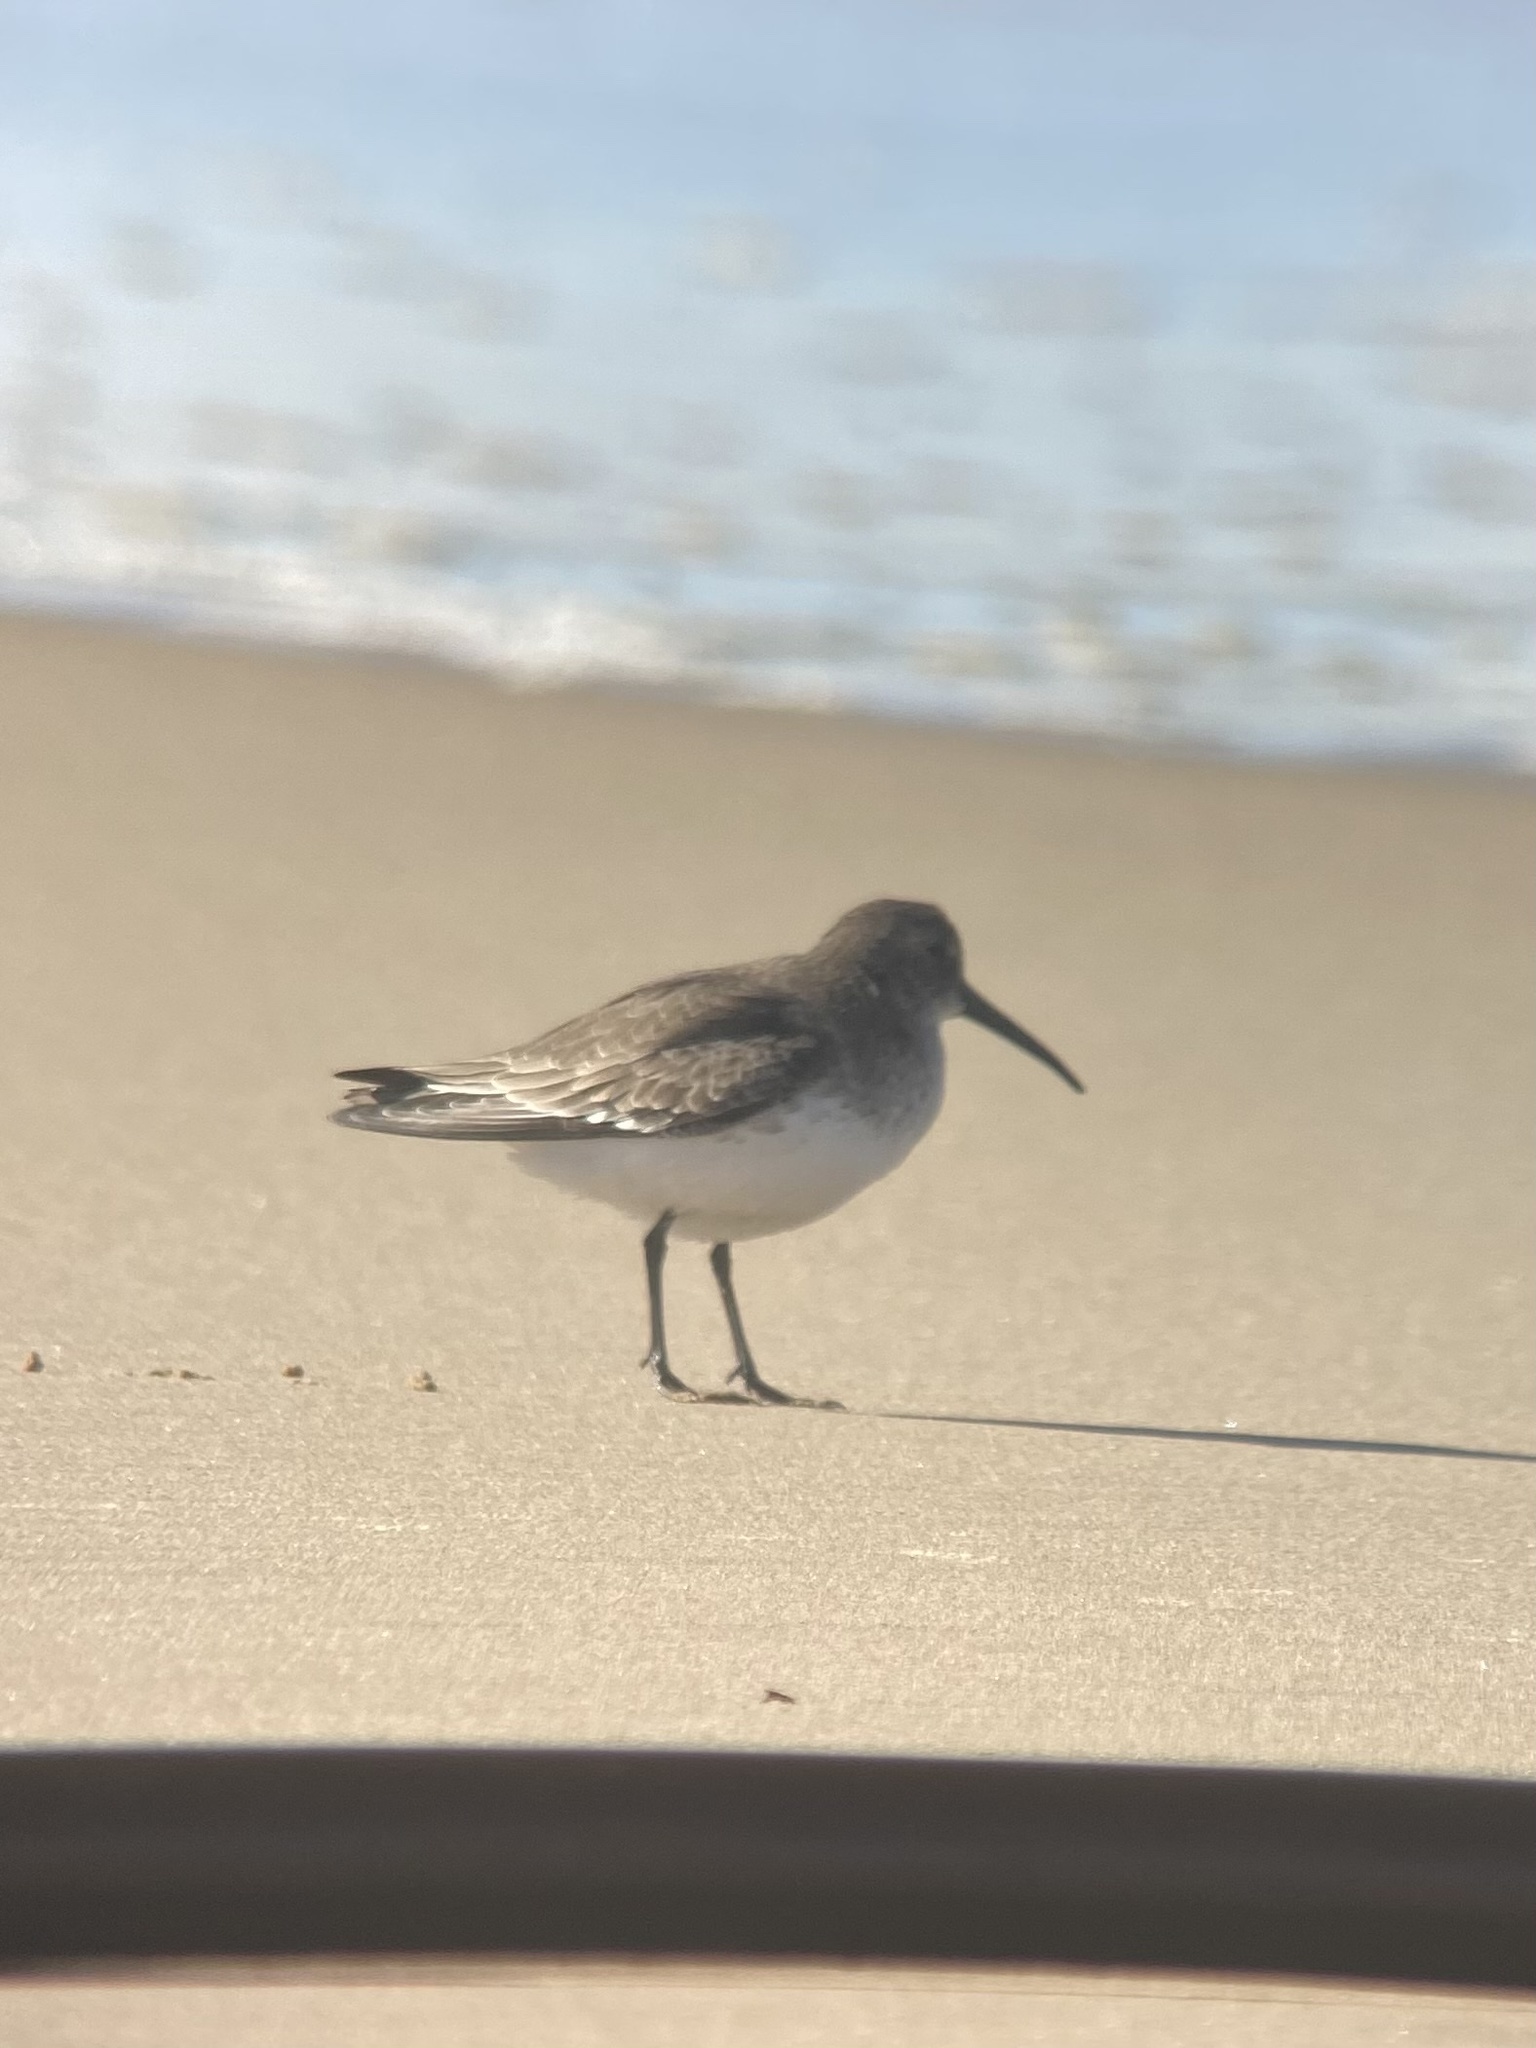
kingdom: Animalia
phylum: Chordata
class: Aves
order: Charadriiformes
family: Scolopacidae
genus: Calidris
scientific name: Calidris alpina
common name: Dunlin
